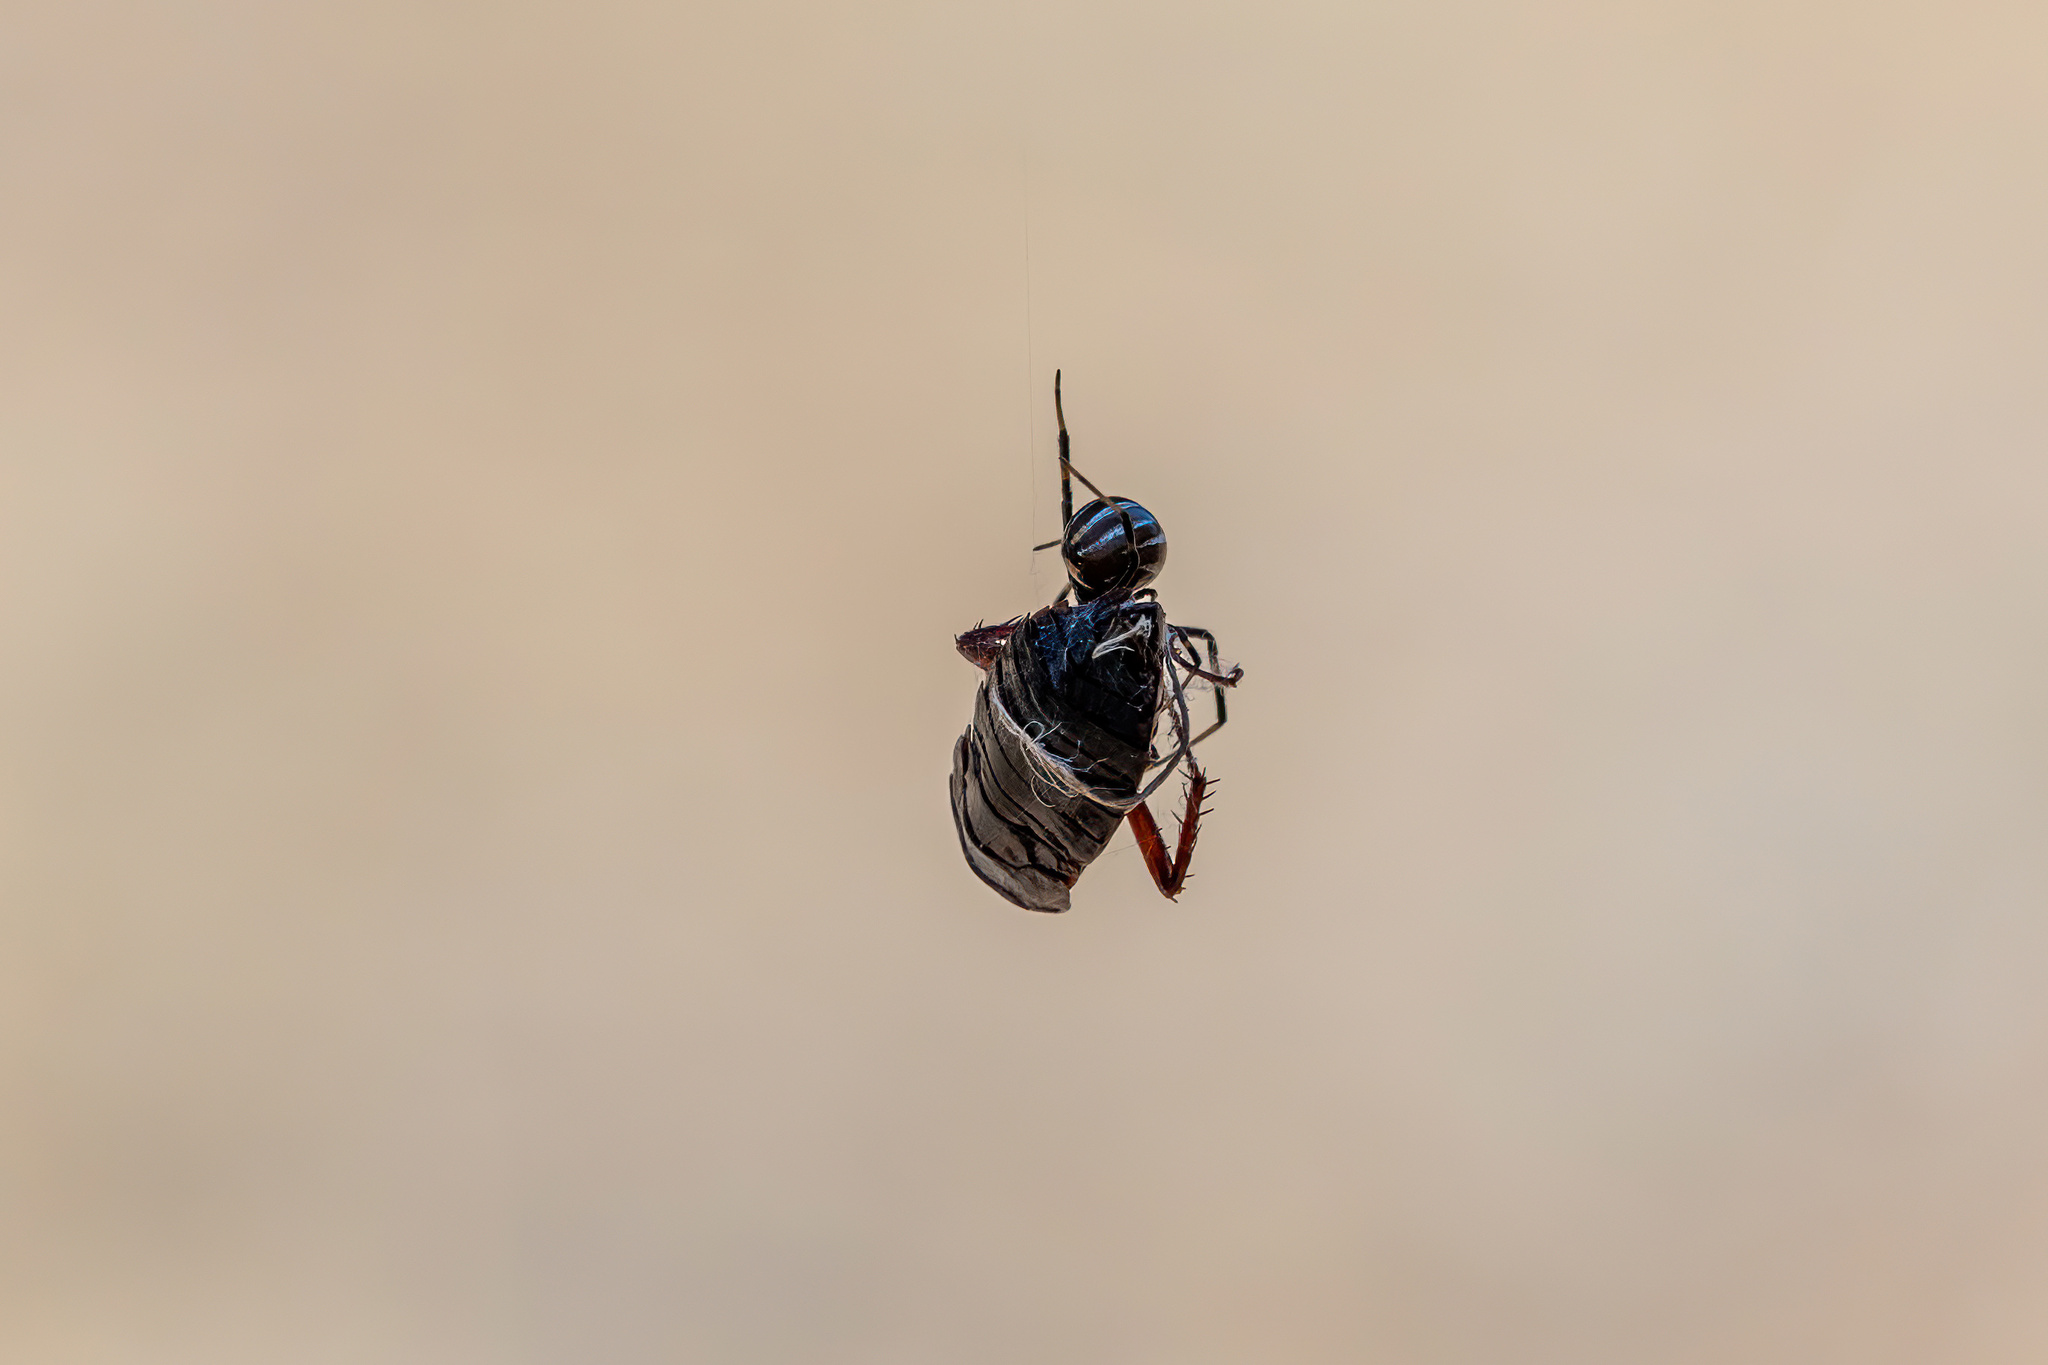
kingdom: Animalia
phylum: Arthropoda
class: Arachnida
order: Araneae
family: Theridiidae
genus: Latrodectus
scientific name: Latrodectus hesperus
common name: Western black widow
